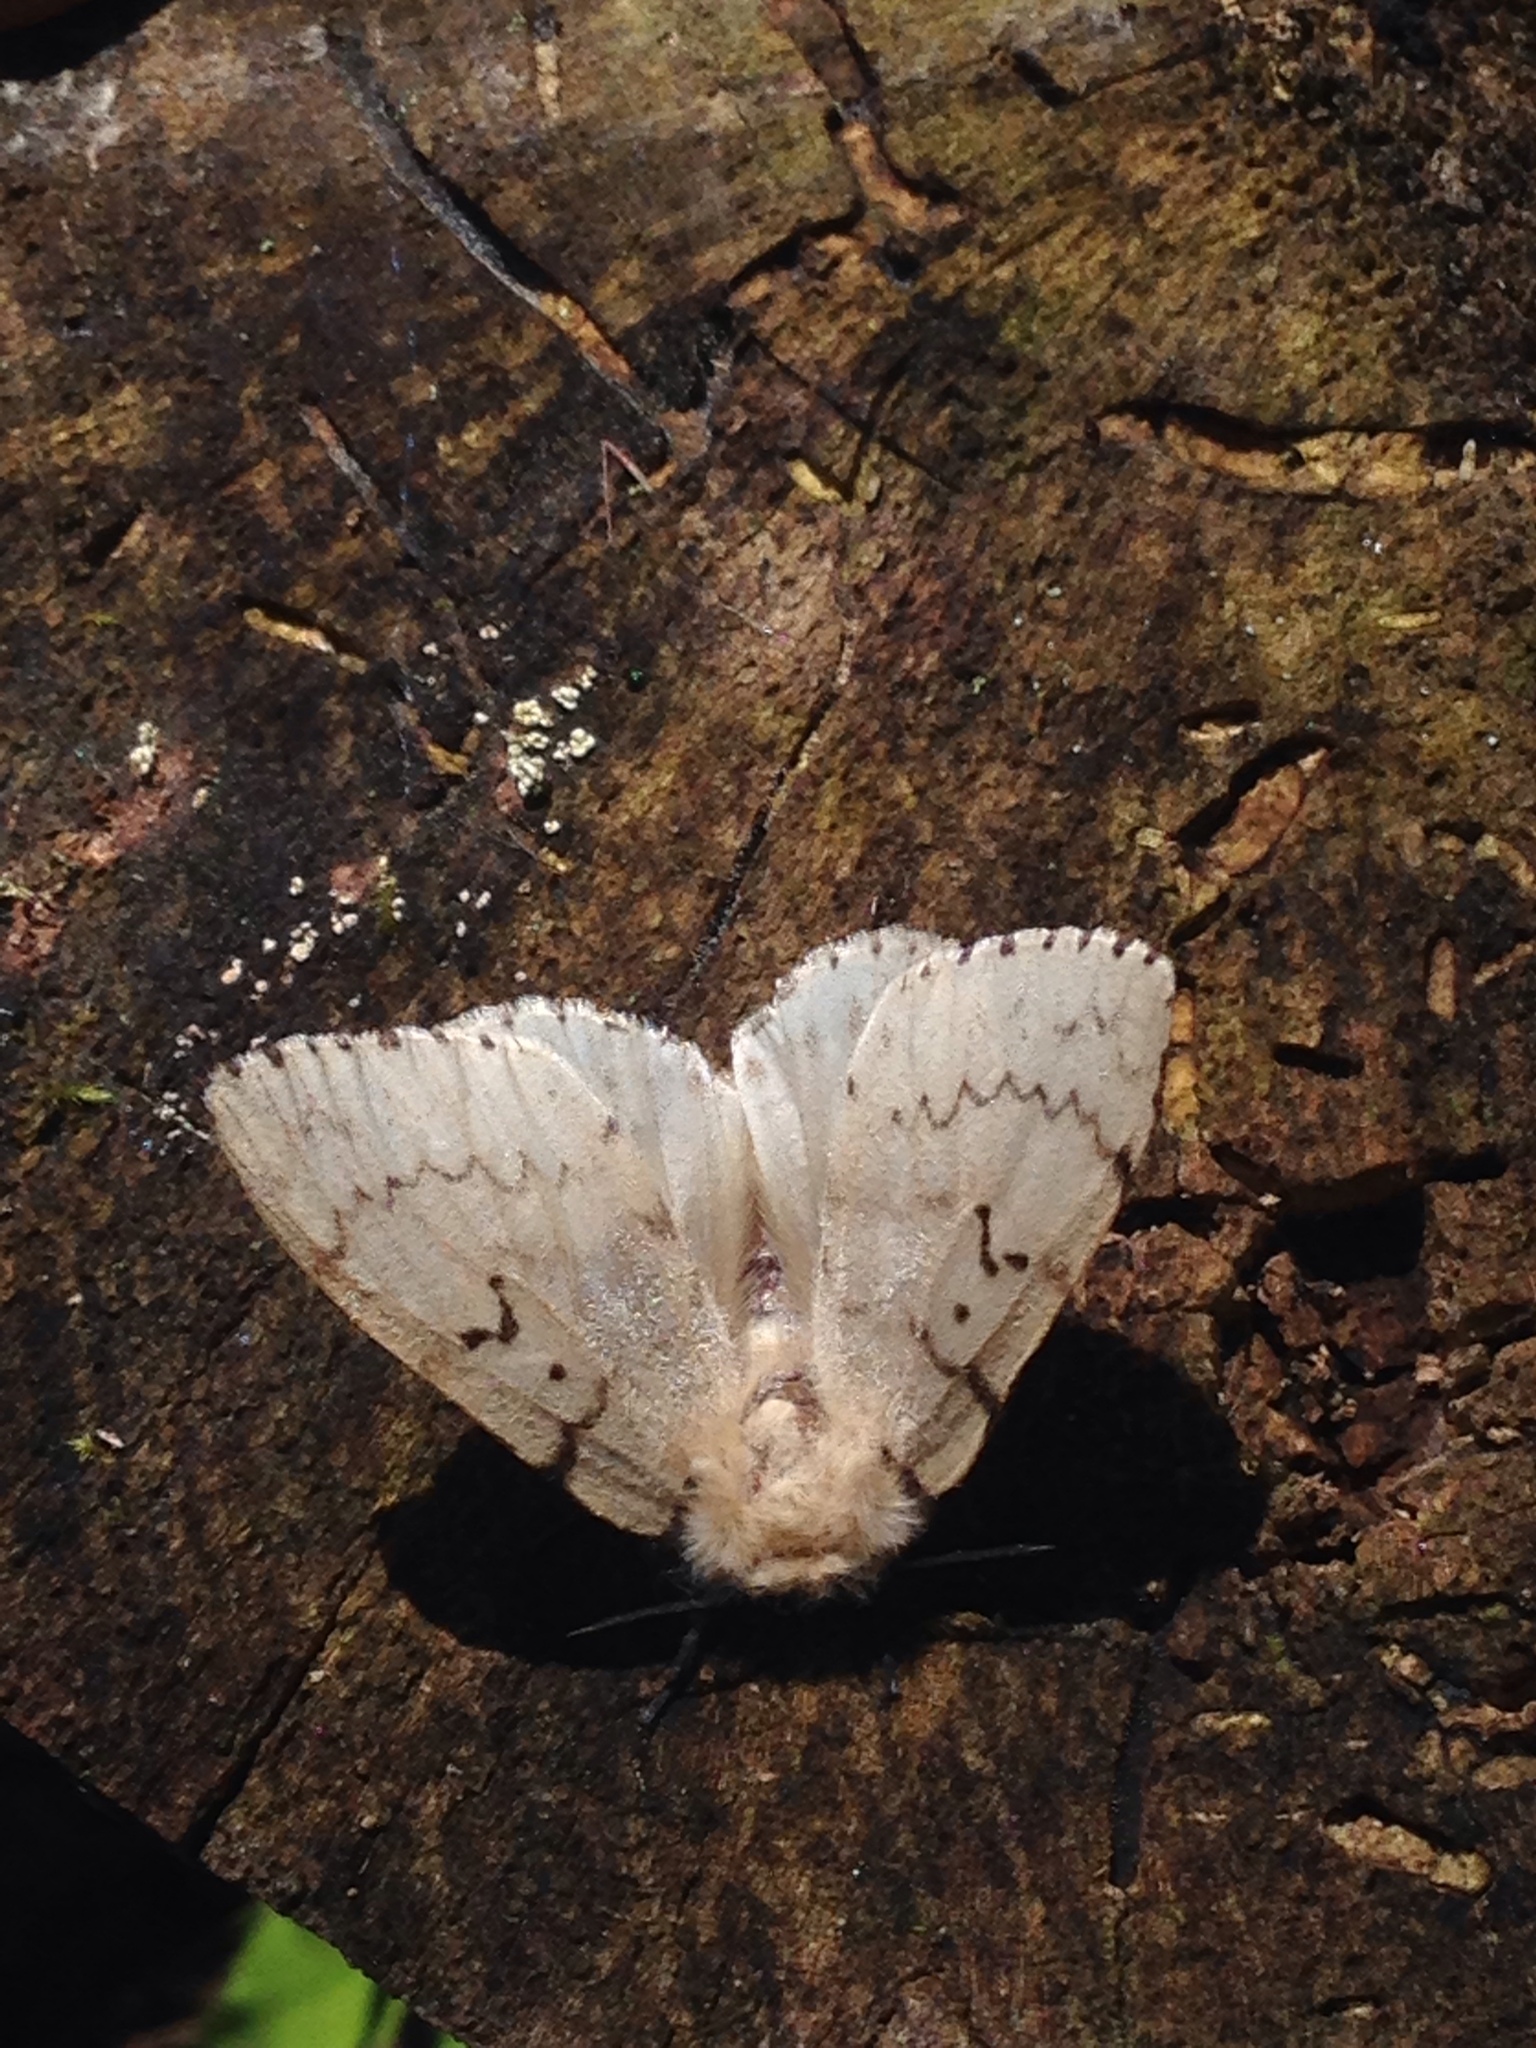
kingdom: Animalia
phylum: Arthropoda
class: Insecta
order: Lepidoptera
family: Erebidae
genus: Lymantria
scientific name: Lymantria dispar
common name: Gypsy moth
